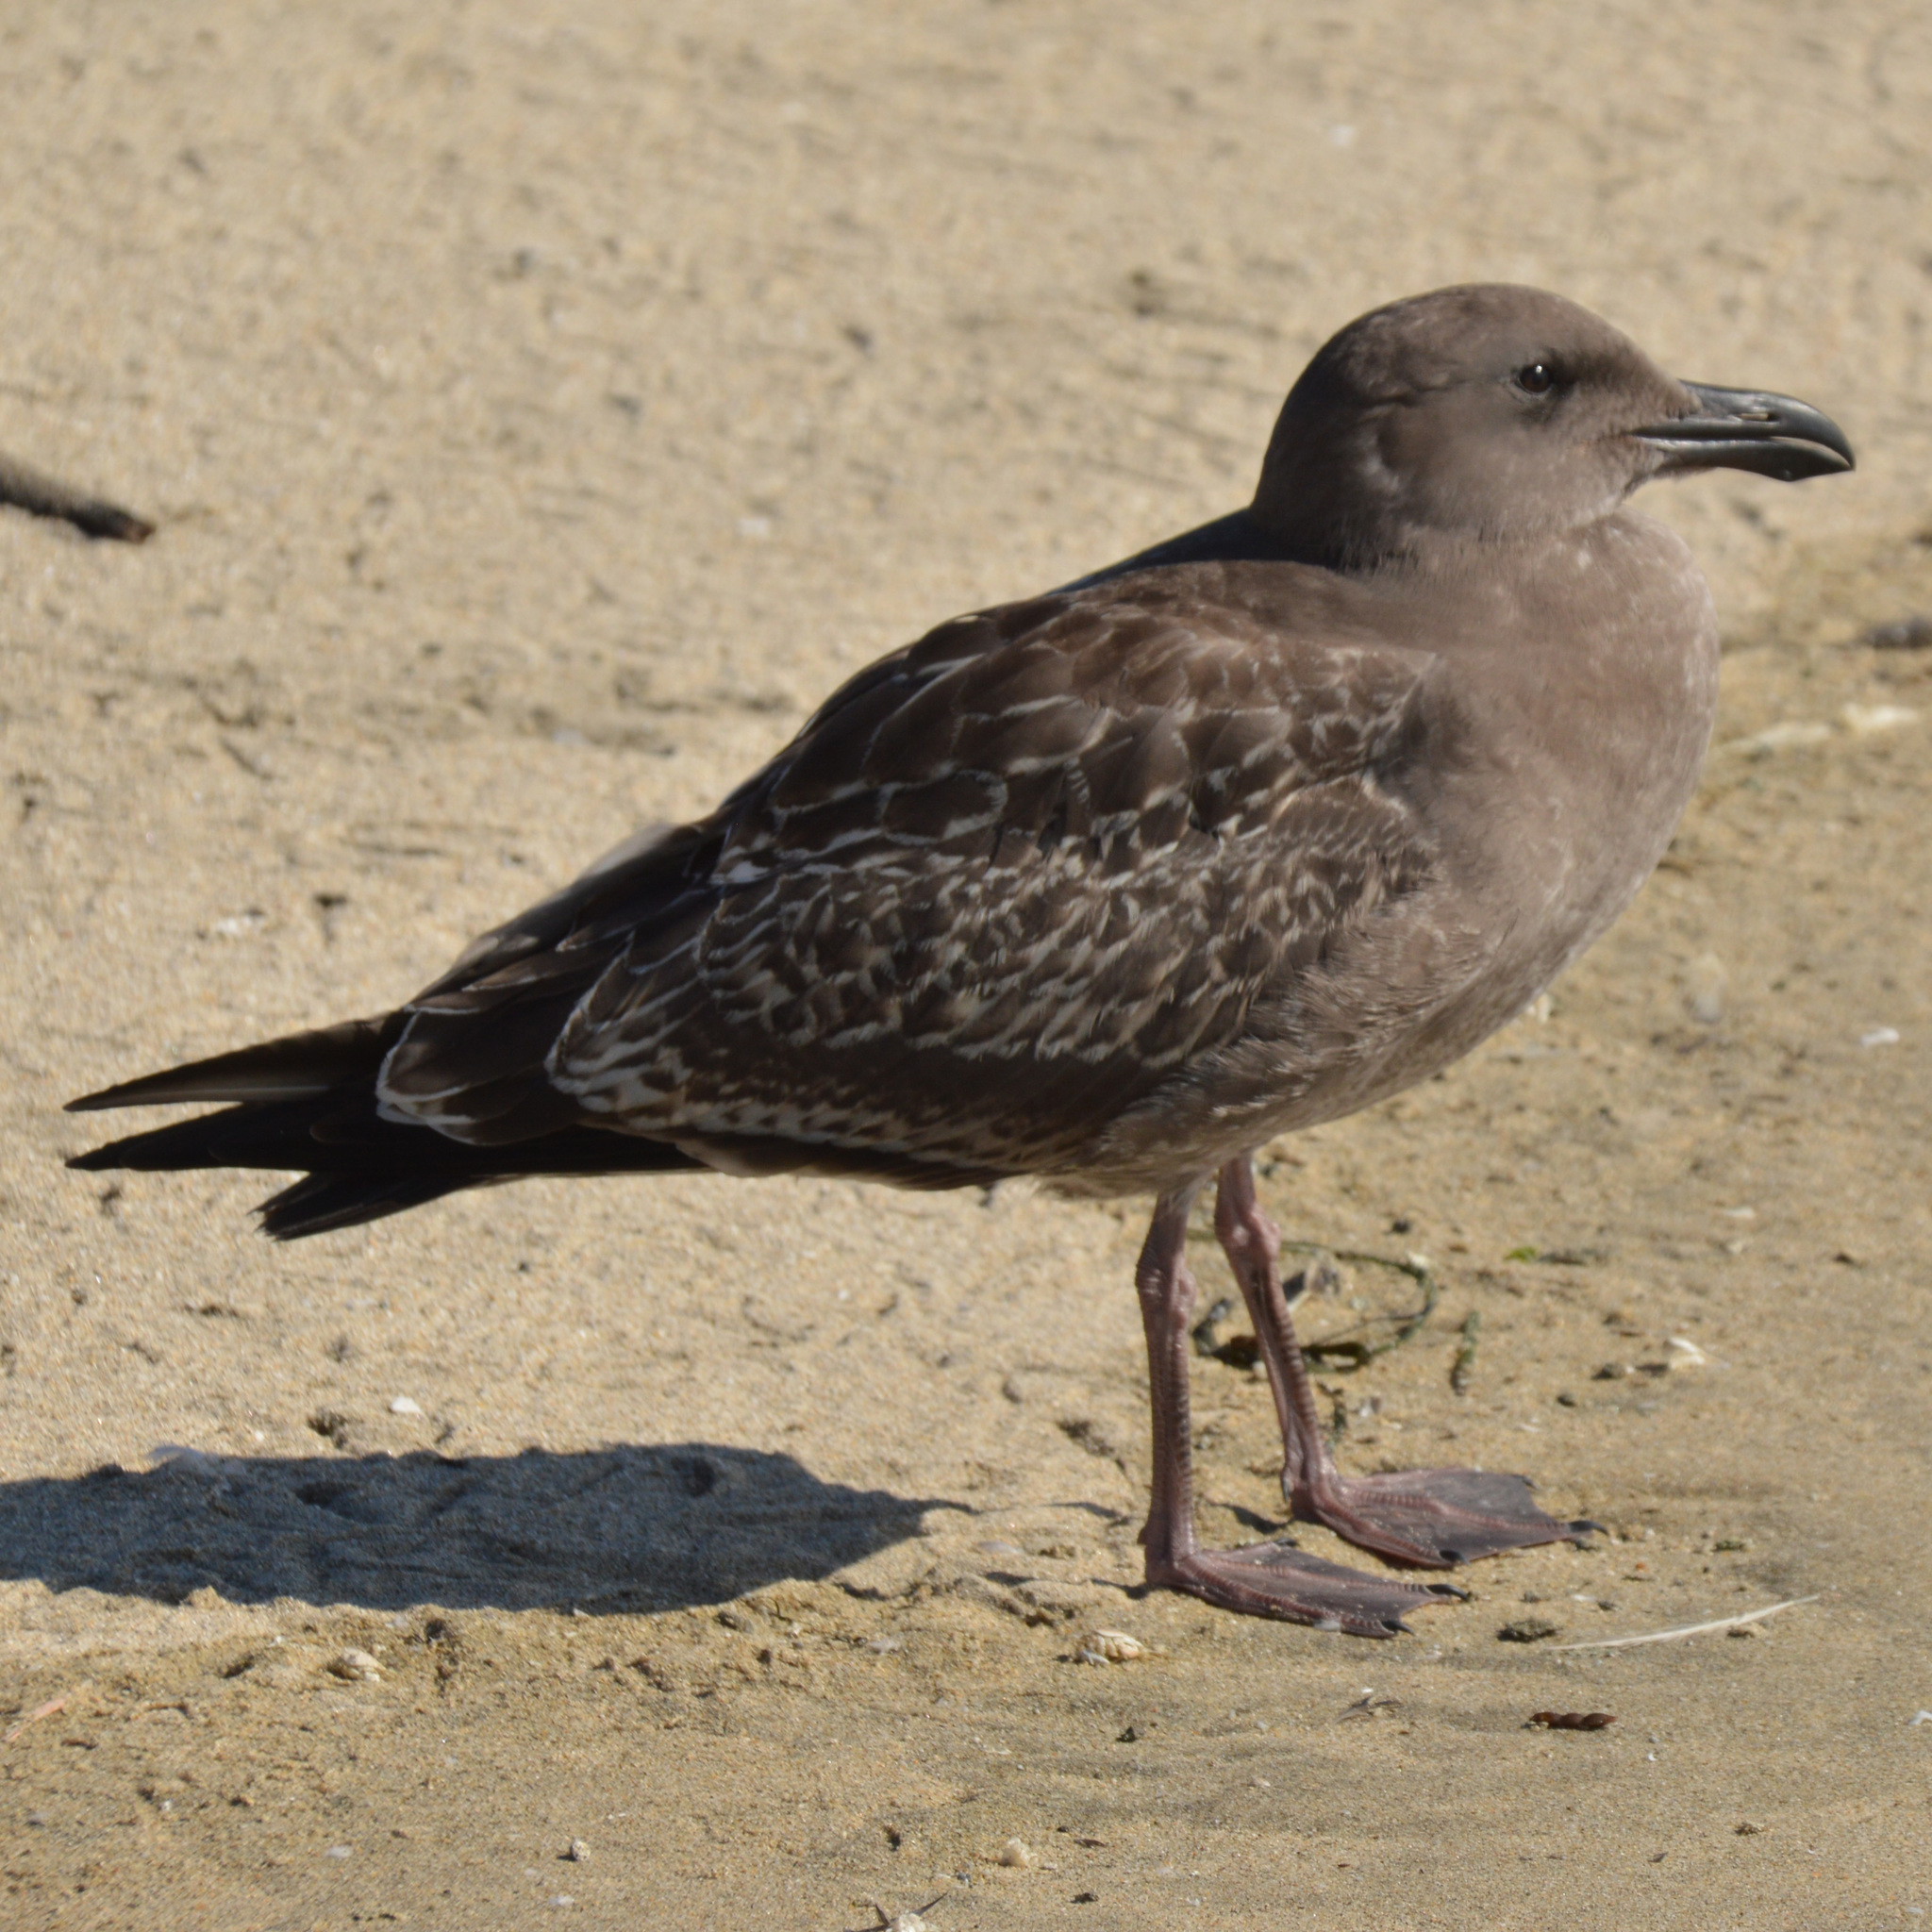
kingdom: Animalia
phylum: Chordata
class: Aves
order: Charadriiformes
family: Laridae
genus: Larus
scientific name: Larus occidentalis
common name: Western gull
